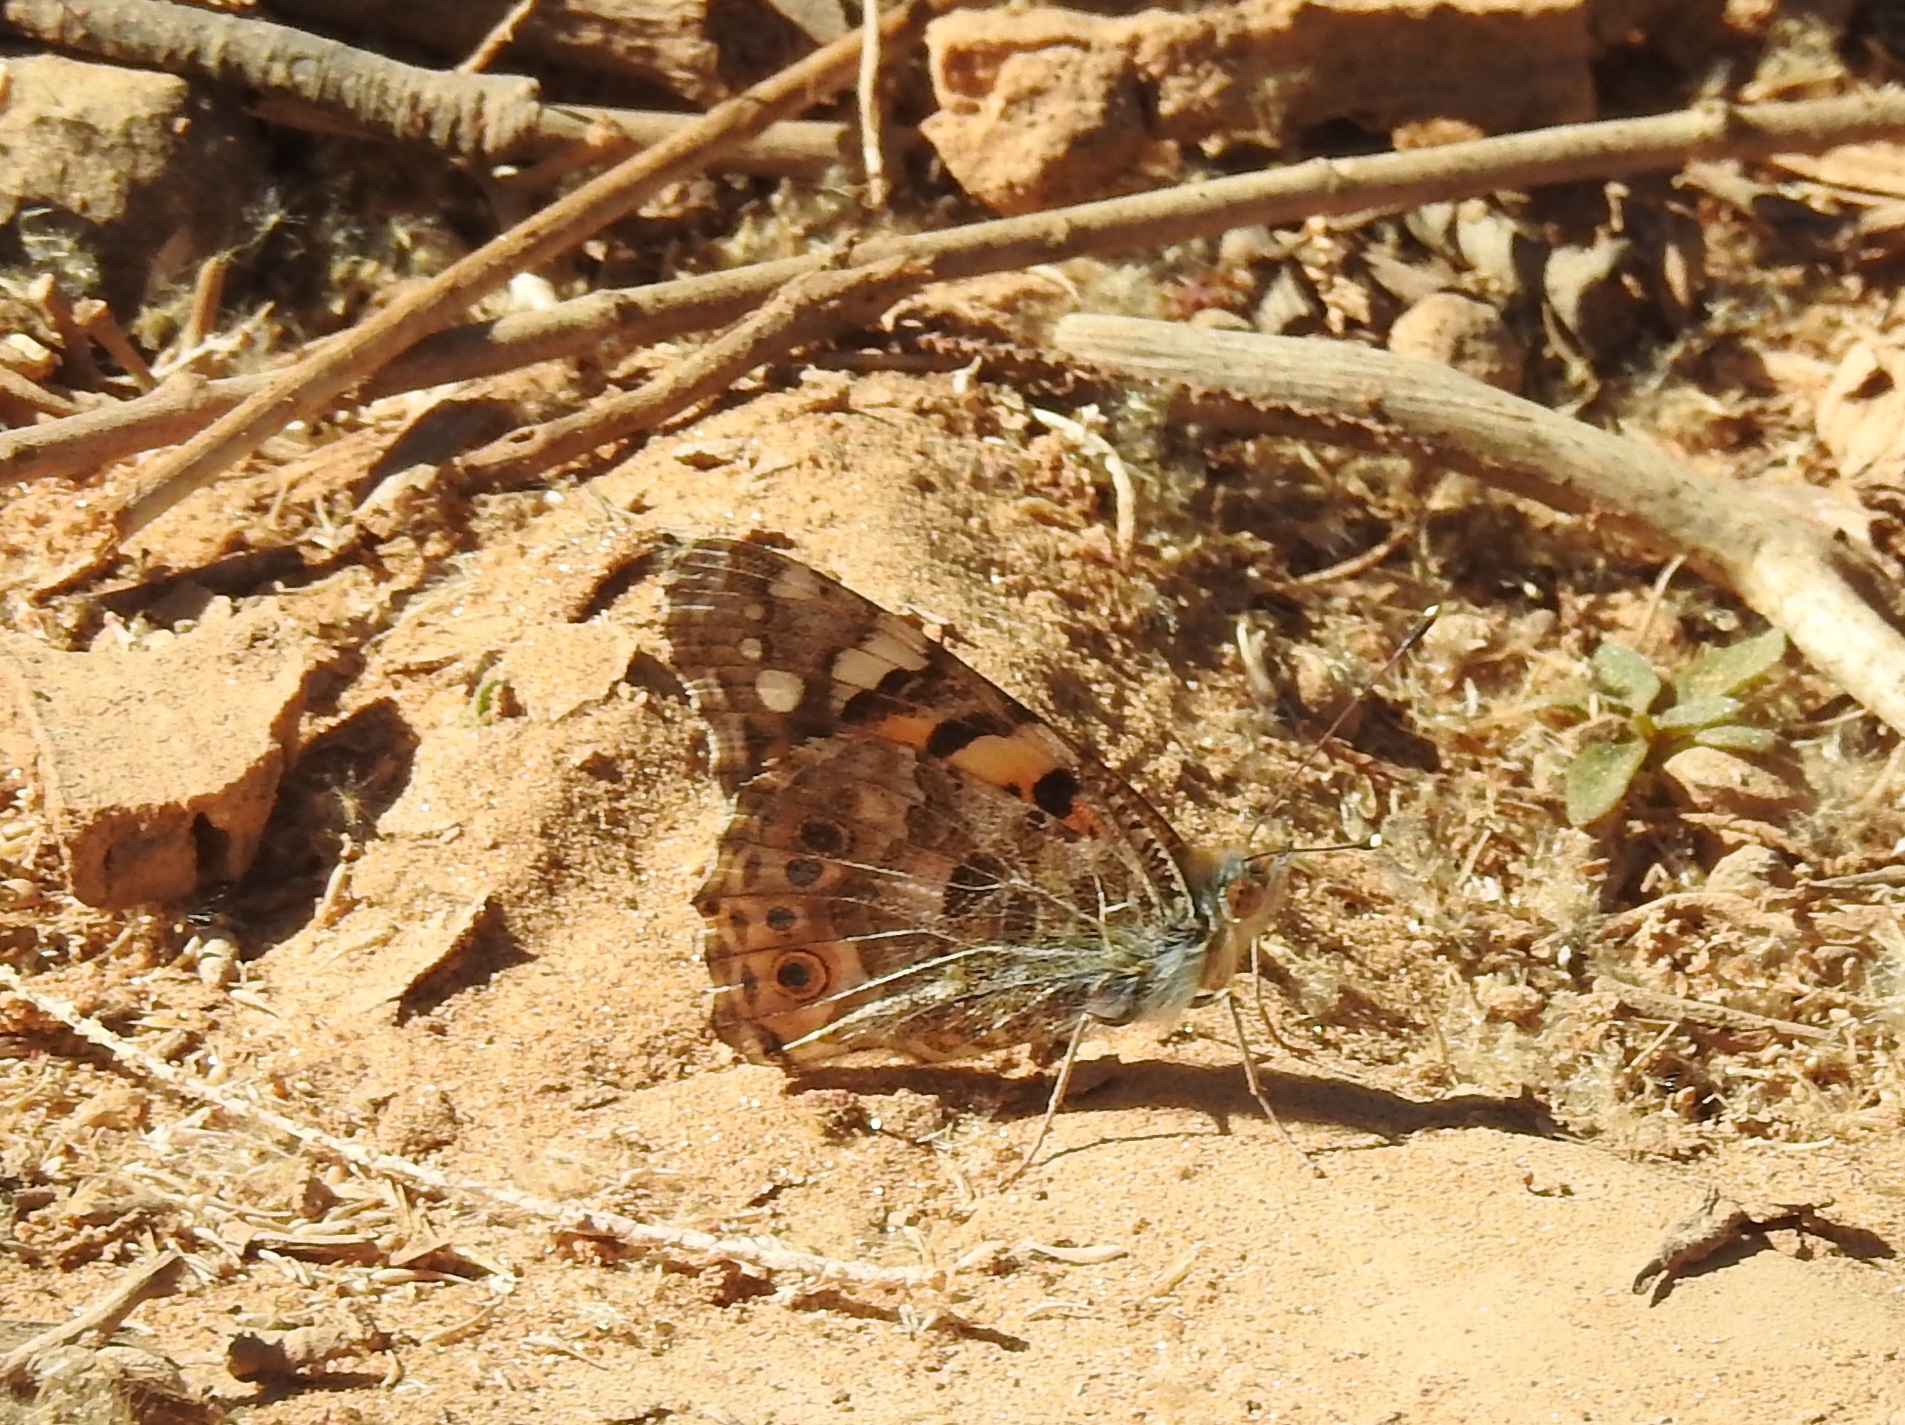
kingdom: Animalia
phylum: Arthropoda
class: Insecta
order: Lepidoptera
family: Nymphalidae
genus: Vanessa
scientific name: Vanessa cardui
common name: Painted lady
